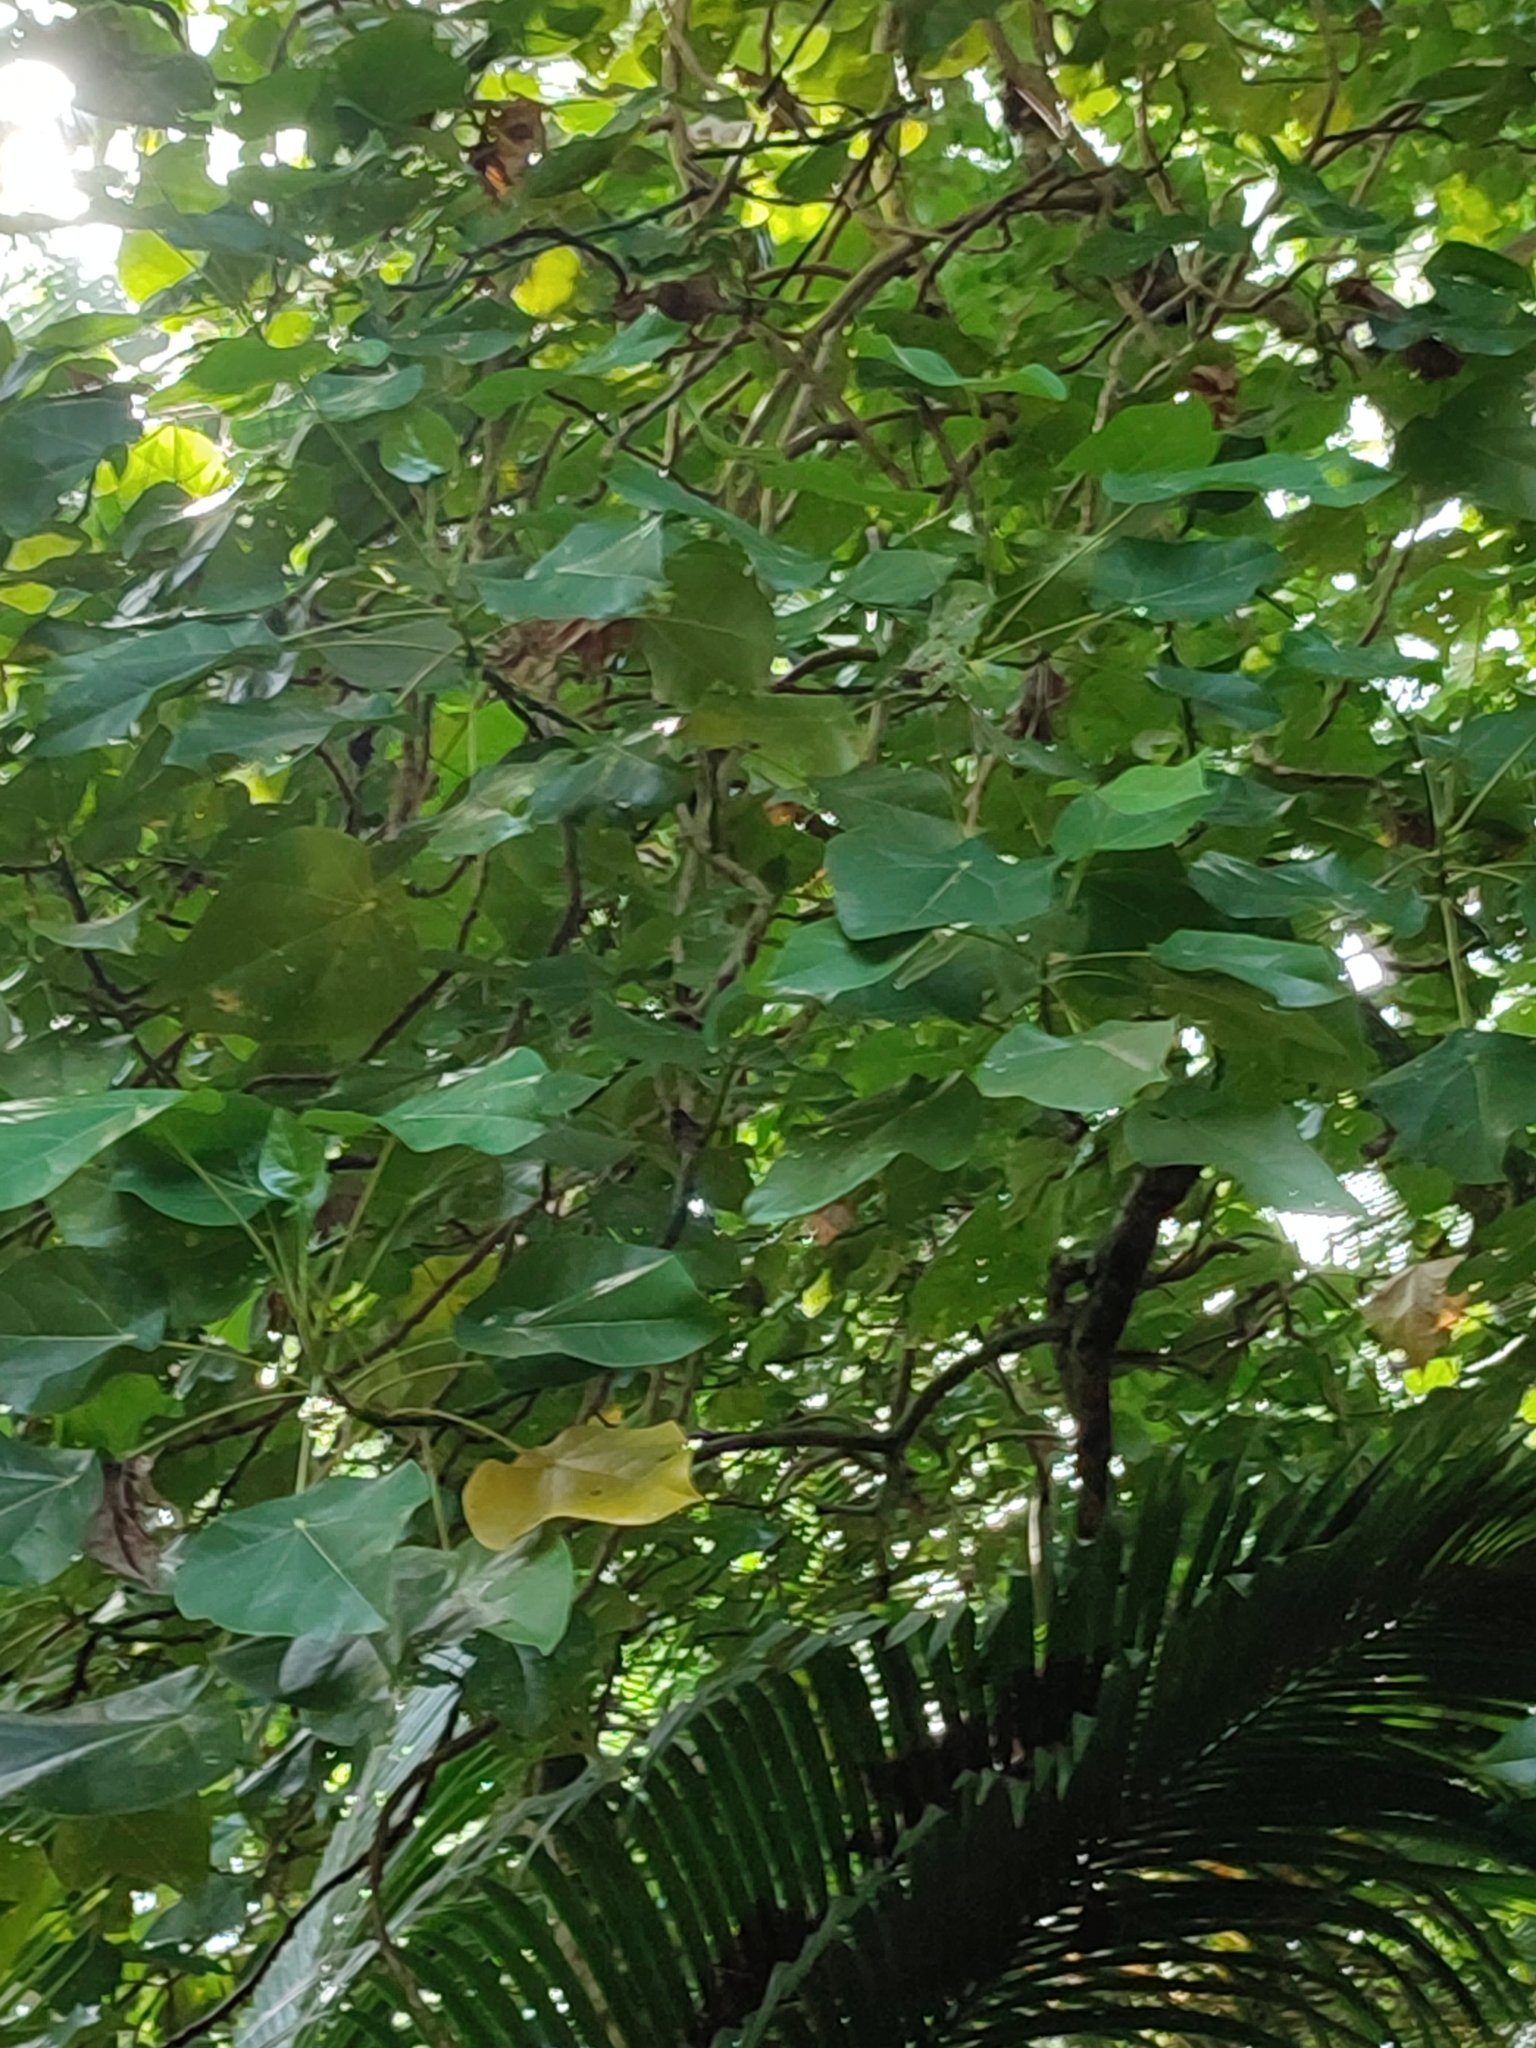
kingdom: Plantae
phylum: Tracheophyta
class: Magnoliopsida
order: Laurales
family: Hernandiaceae
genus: Hernandia
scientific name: Hernandia nymphaeifolia
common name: Sea hearse
